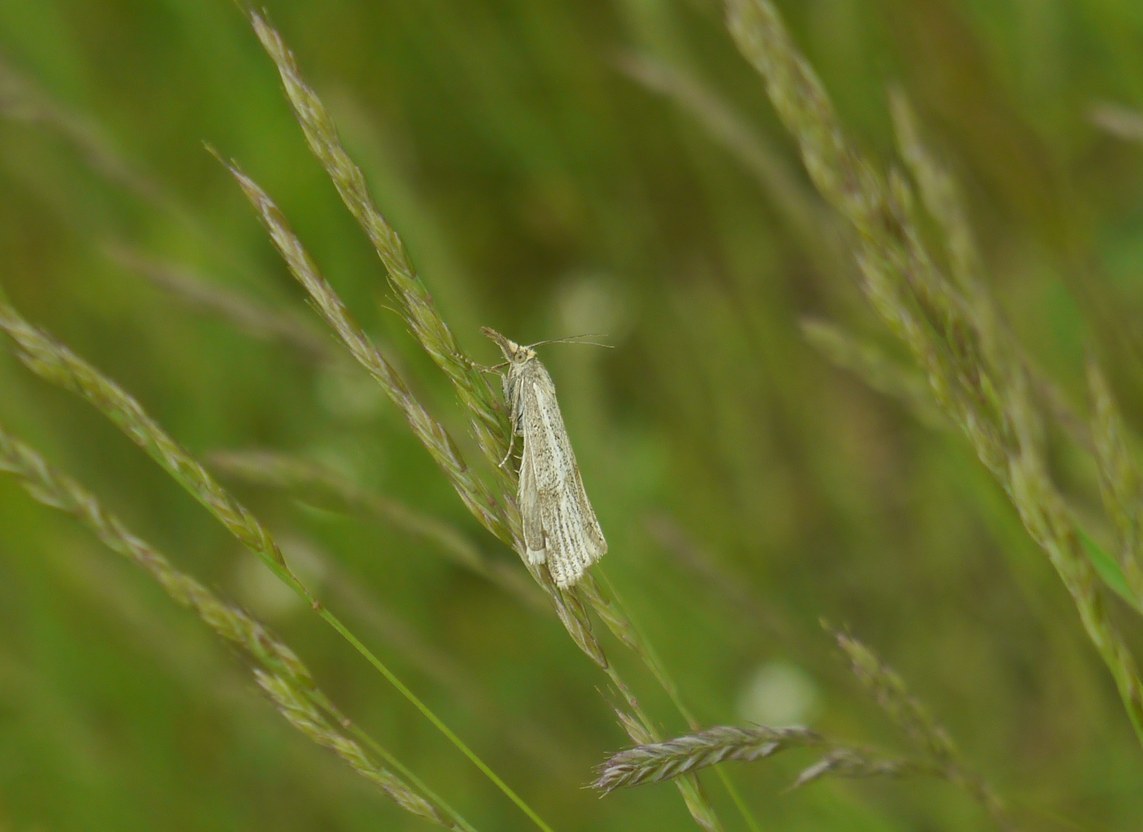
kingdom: Animalia
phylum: Arthropoda
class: Insecta
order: Lepidoptera
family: Crambidae
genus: Thisanotia
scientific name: Thisanotia chrysonuchella
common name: Powdered grass-veneer
